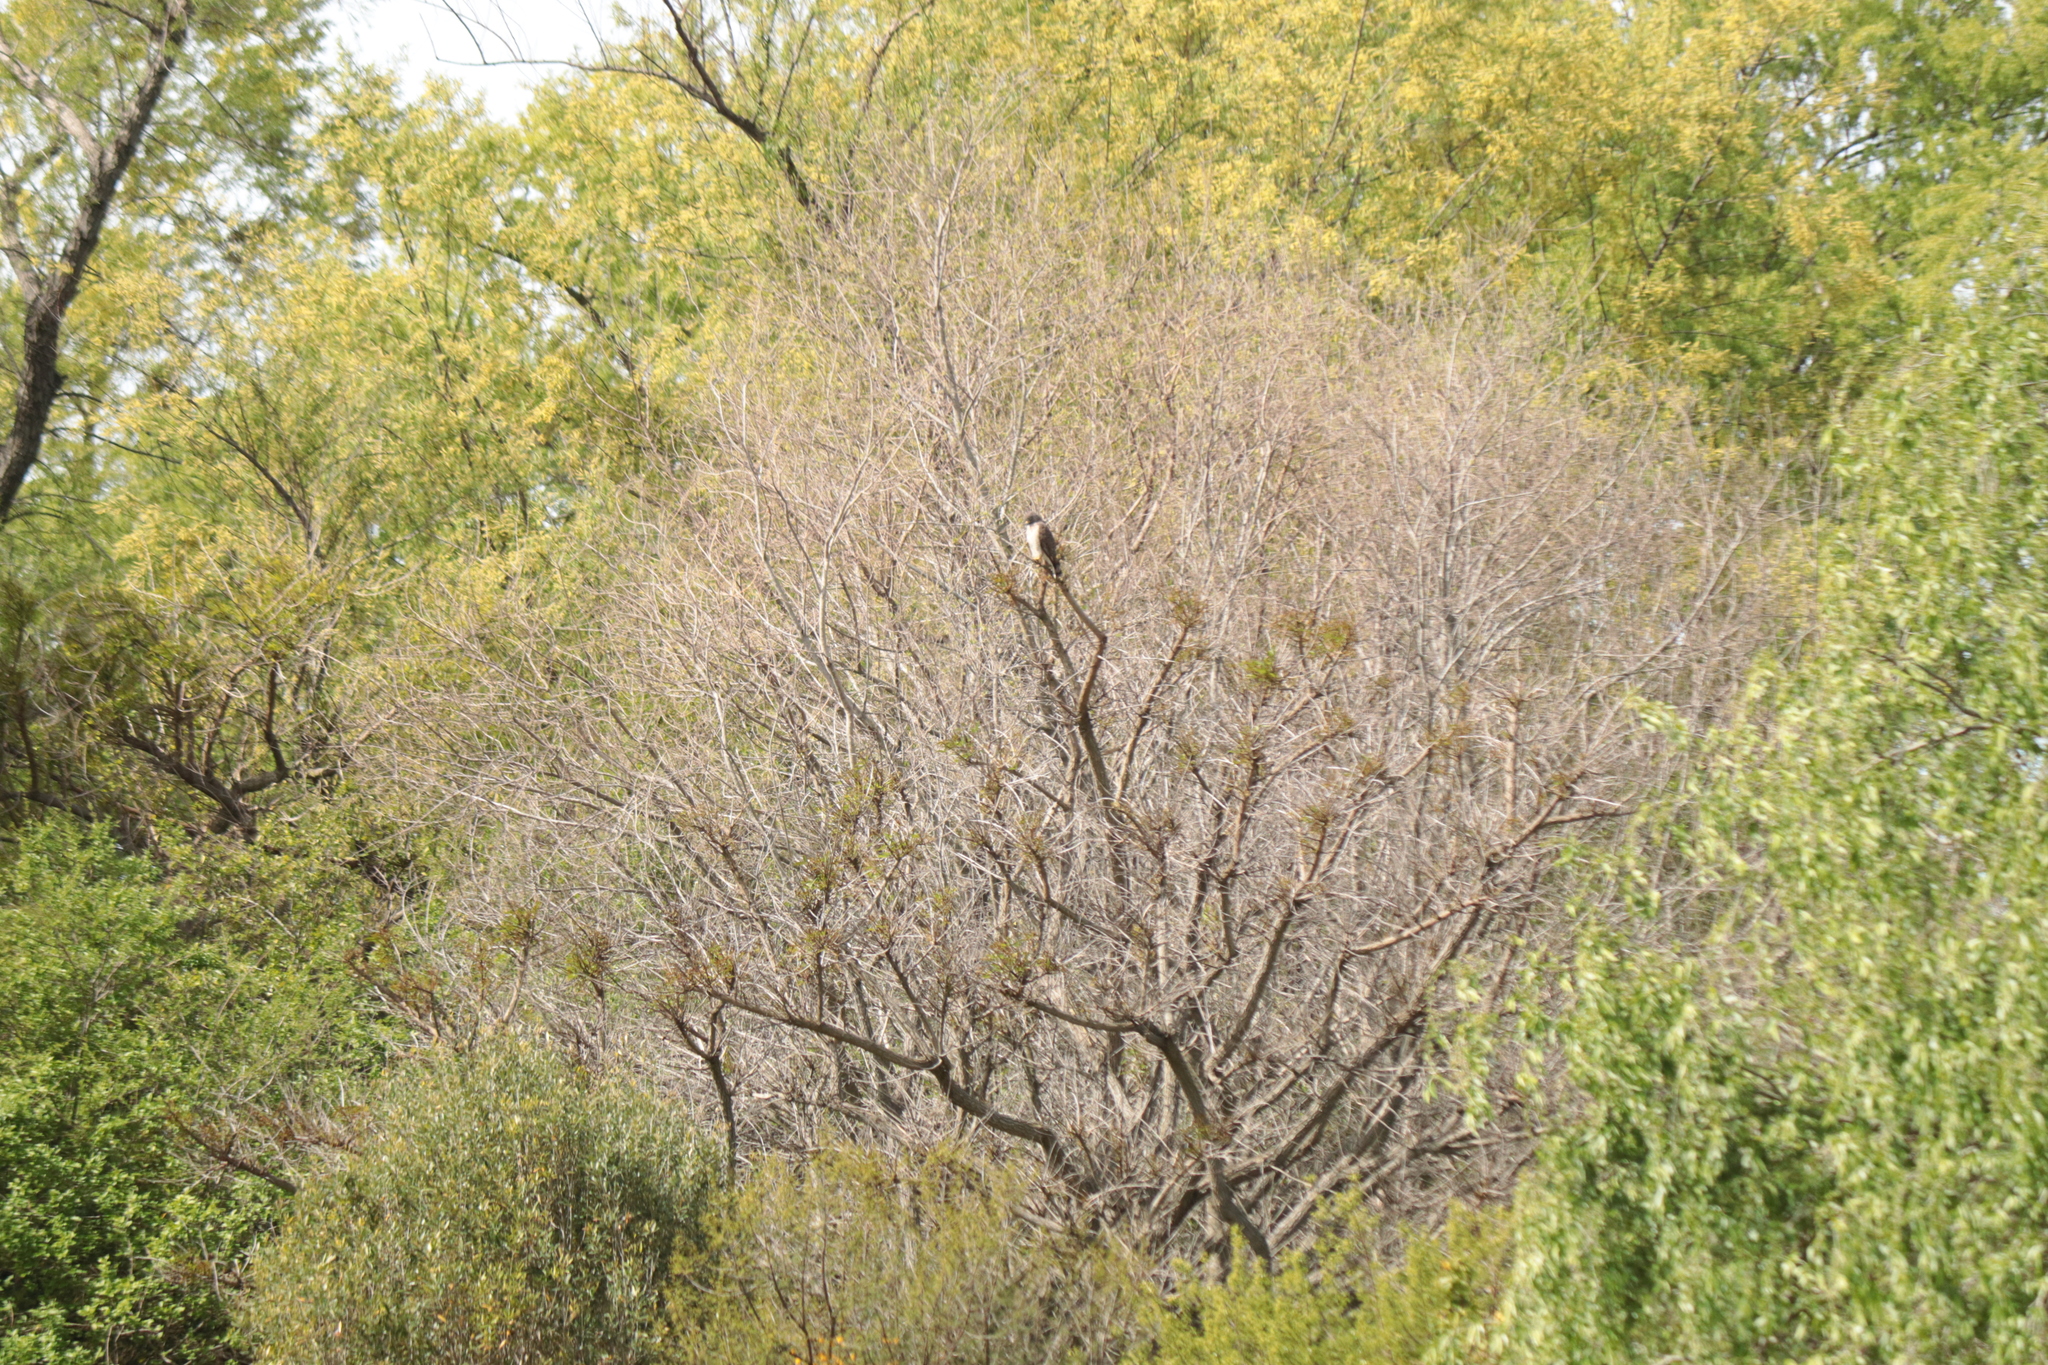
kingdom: Animalia
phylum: Chordata
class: Aves
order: Accipitriformes
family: Accipitridae
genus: Rupornis
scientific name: Rupornis magnirostris
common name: Roadside hawk
